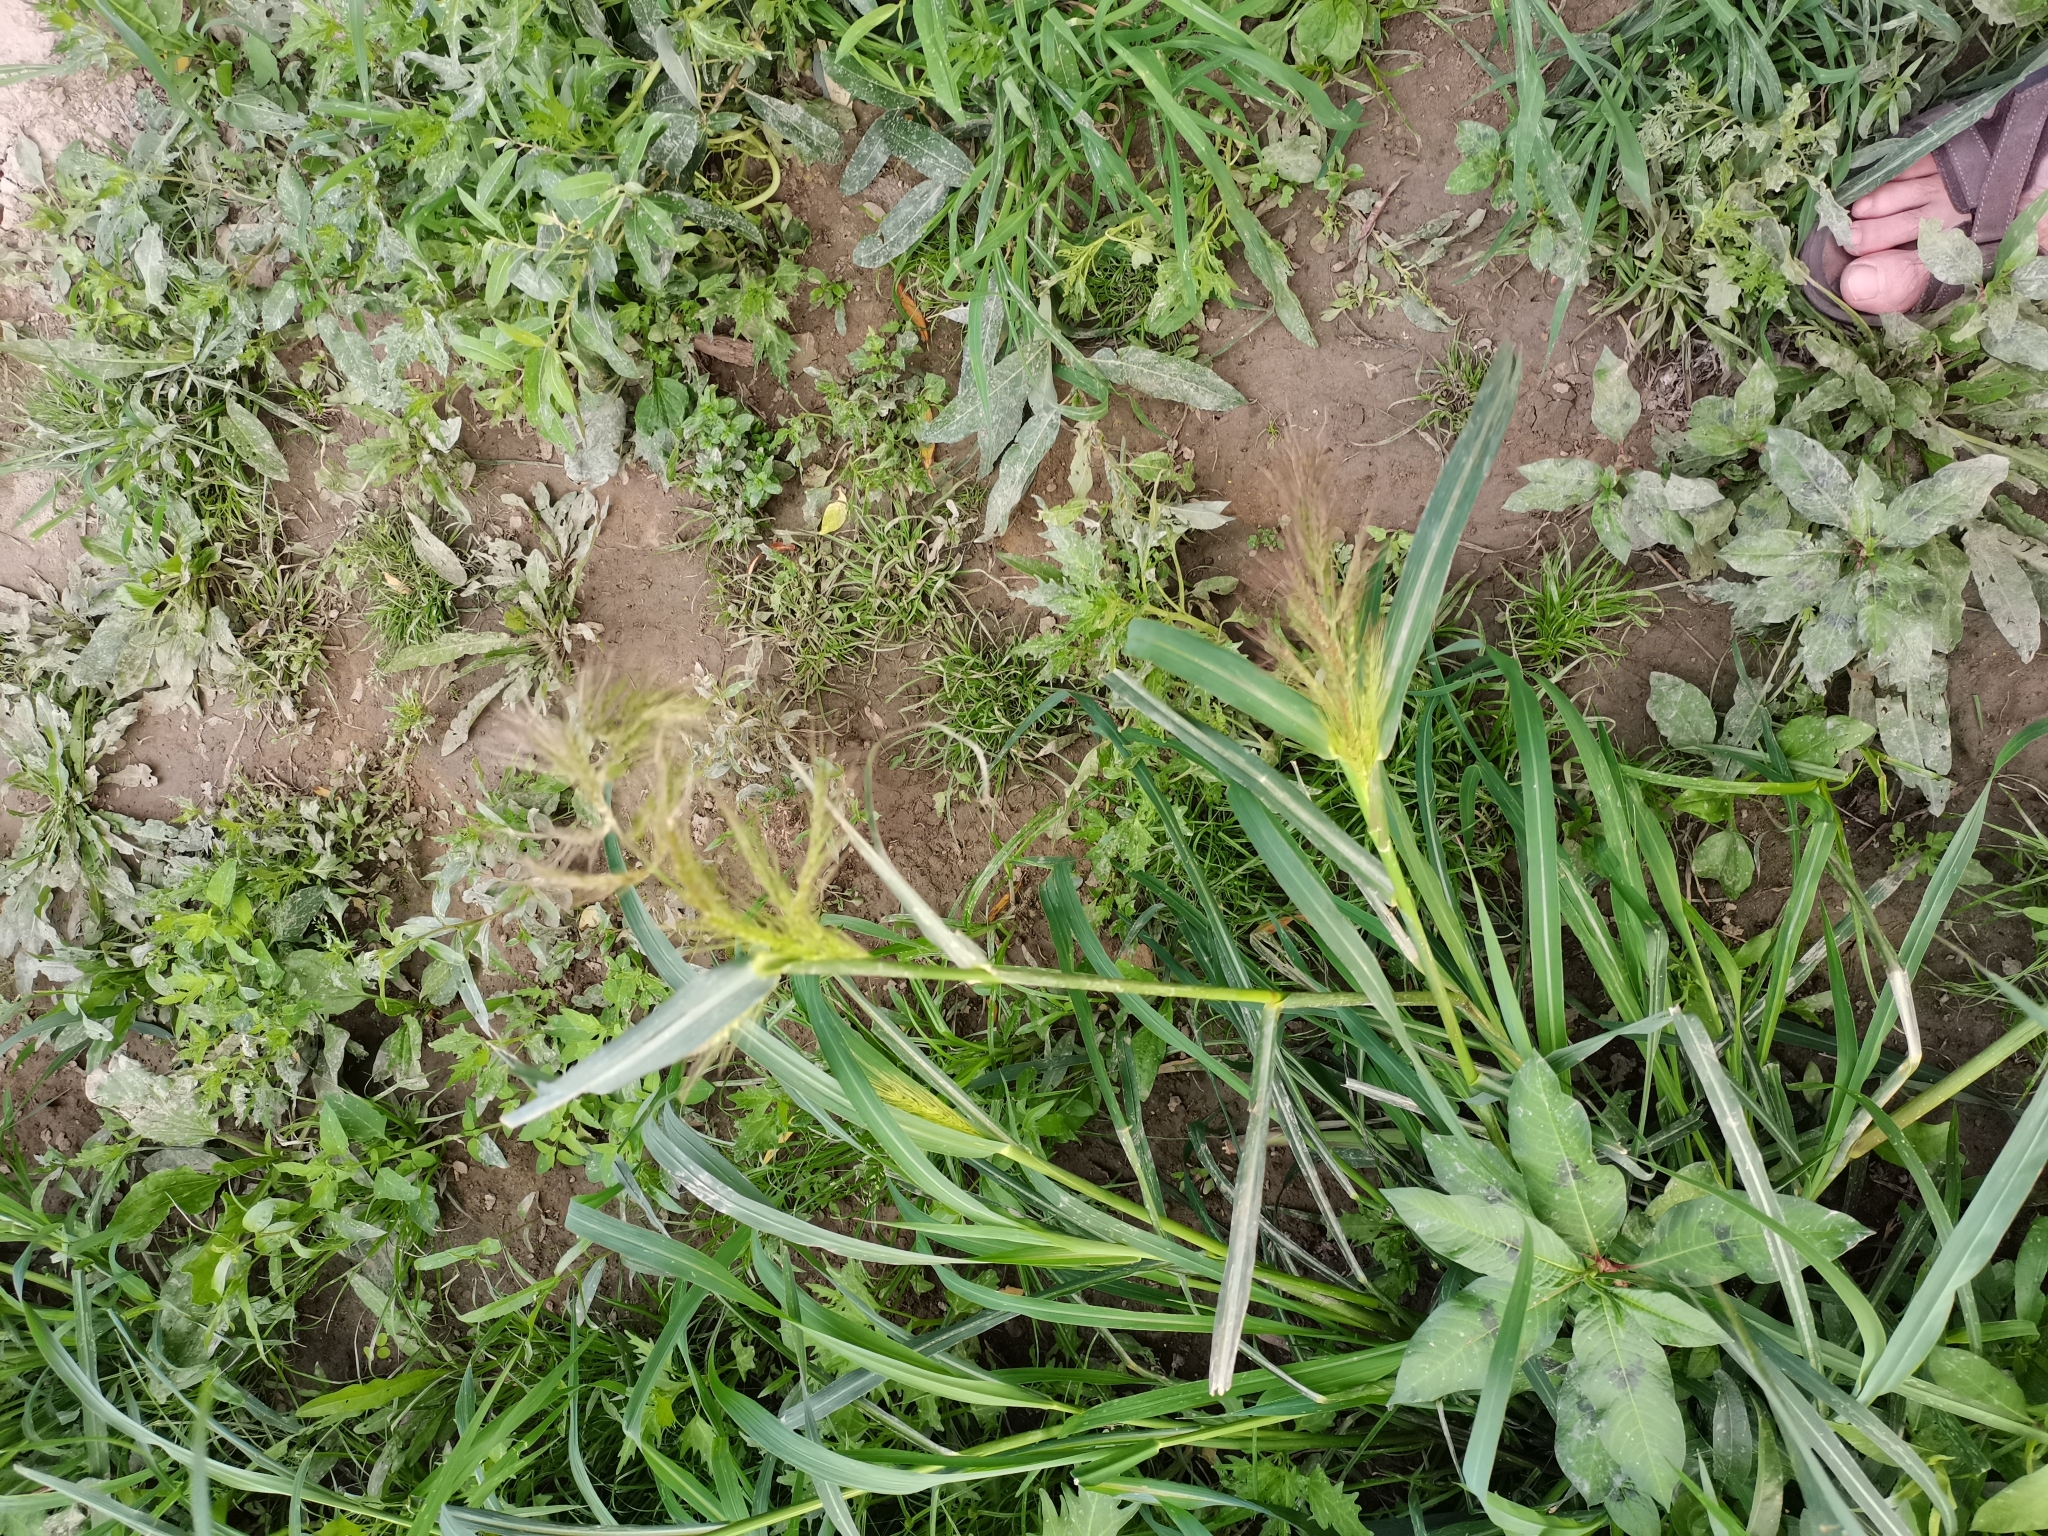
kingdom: Plantae
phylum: Tracheophyta
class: Liliopsida
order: Poales
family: Poaceae
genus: Echinochloa
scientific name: Echinochloa crus-galli
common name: Cockspur
